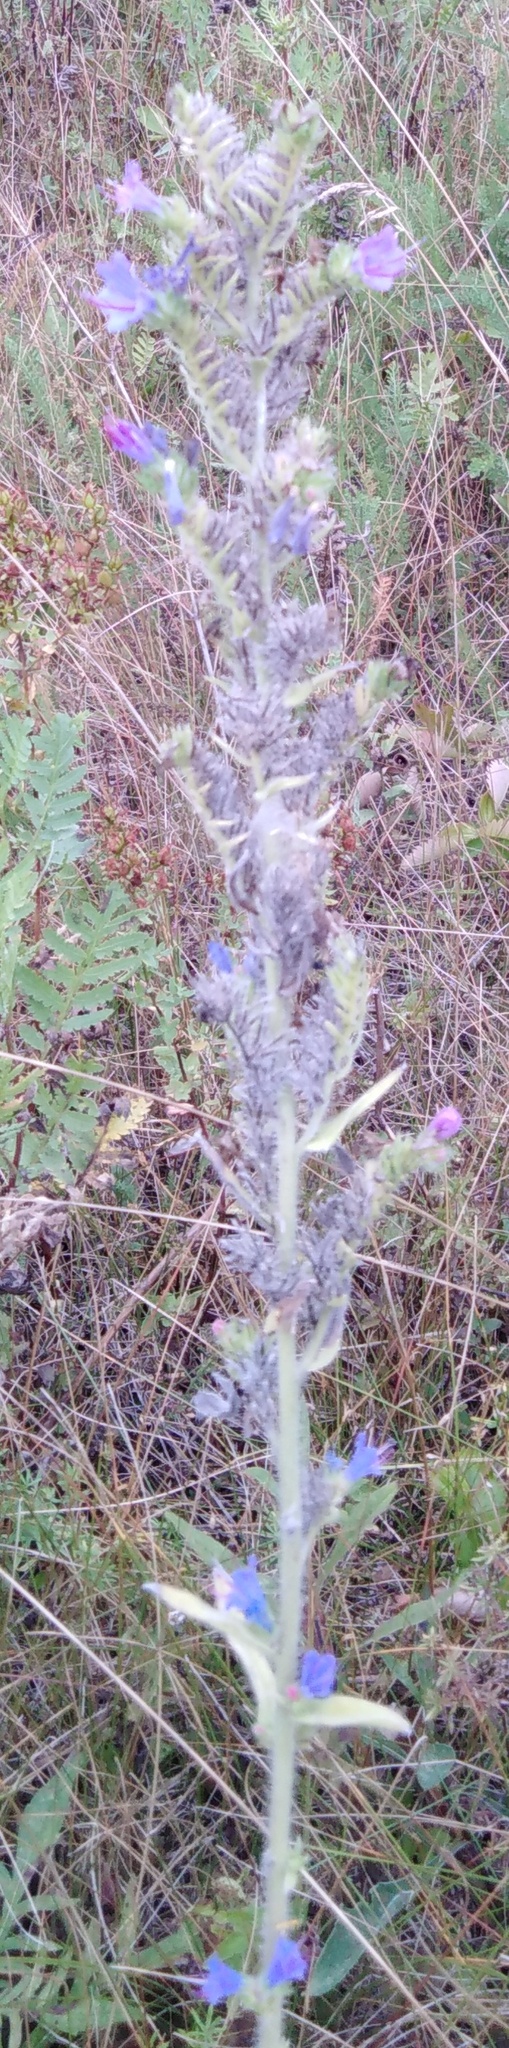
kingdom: Plantae
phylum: Tracheophyta
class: Magnoliopsida
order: Boraginales
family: Boraginaceae
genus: Echium
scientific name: Echium vulgare
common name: Common viper's bugloss
